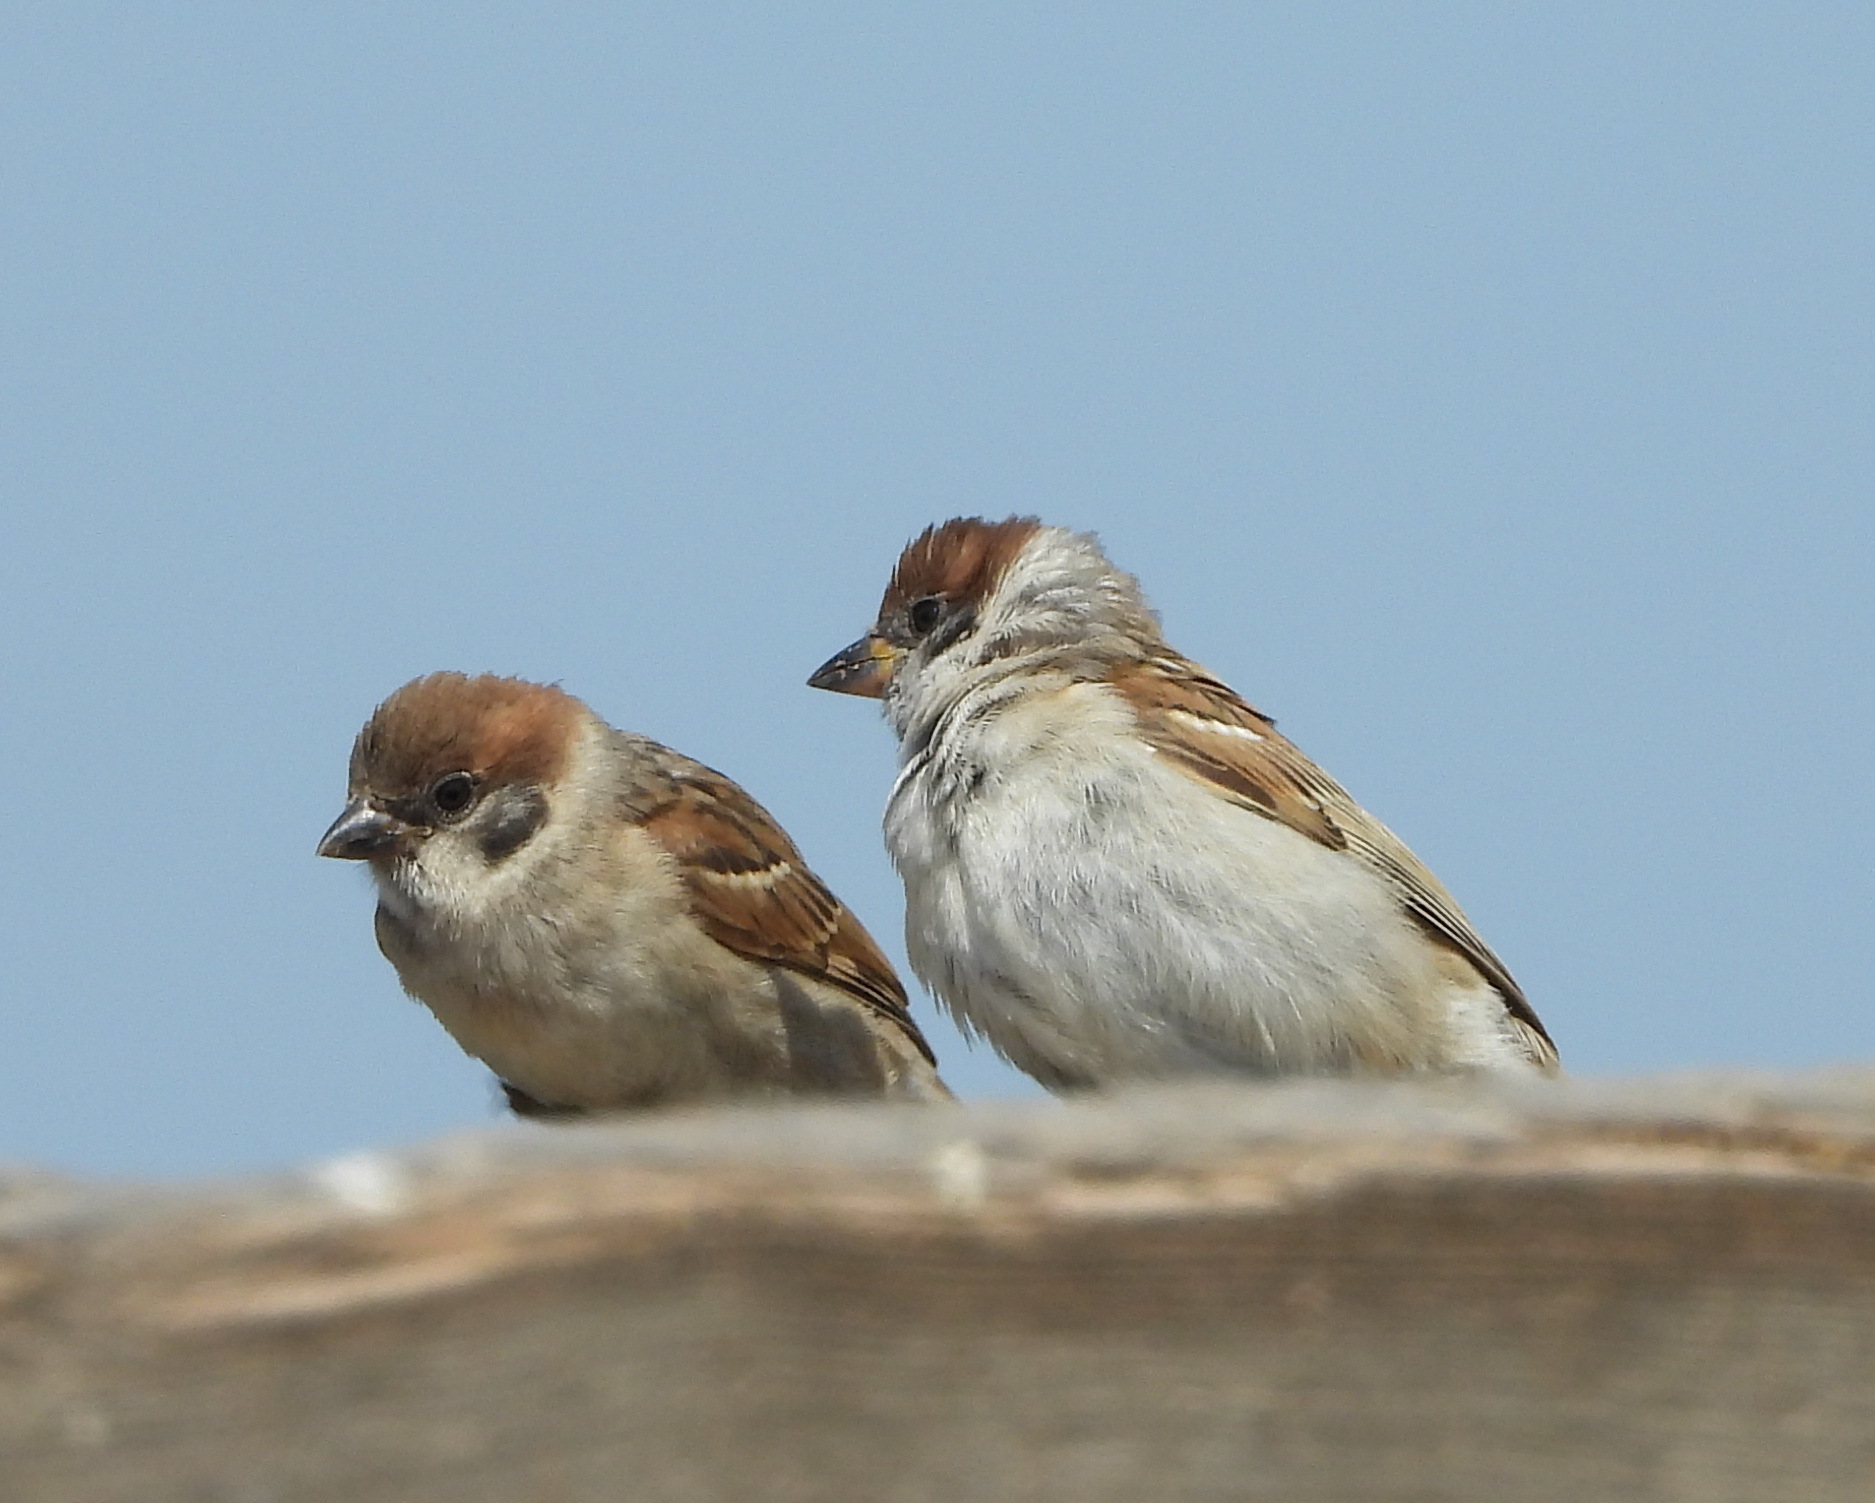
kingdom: Animalia
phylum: Chordata
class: Aves
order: Passeriformes
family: Passeridae
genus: Passer
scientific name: Passer montanus
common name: Eurasian tree sparrow
